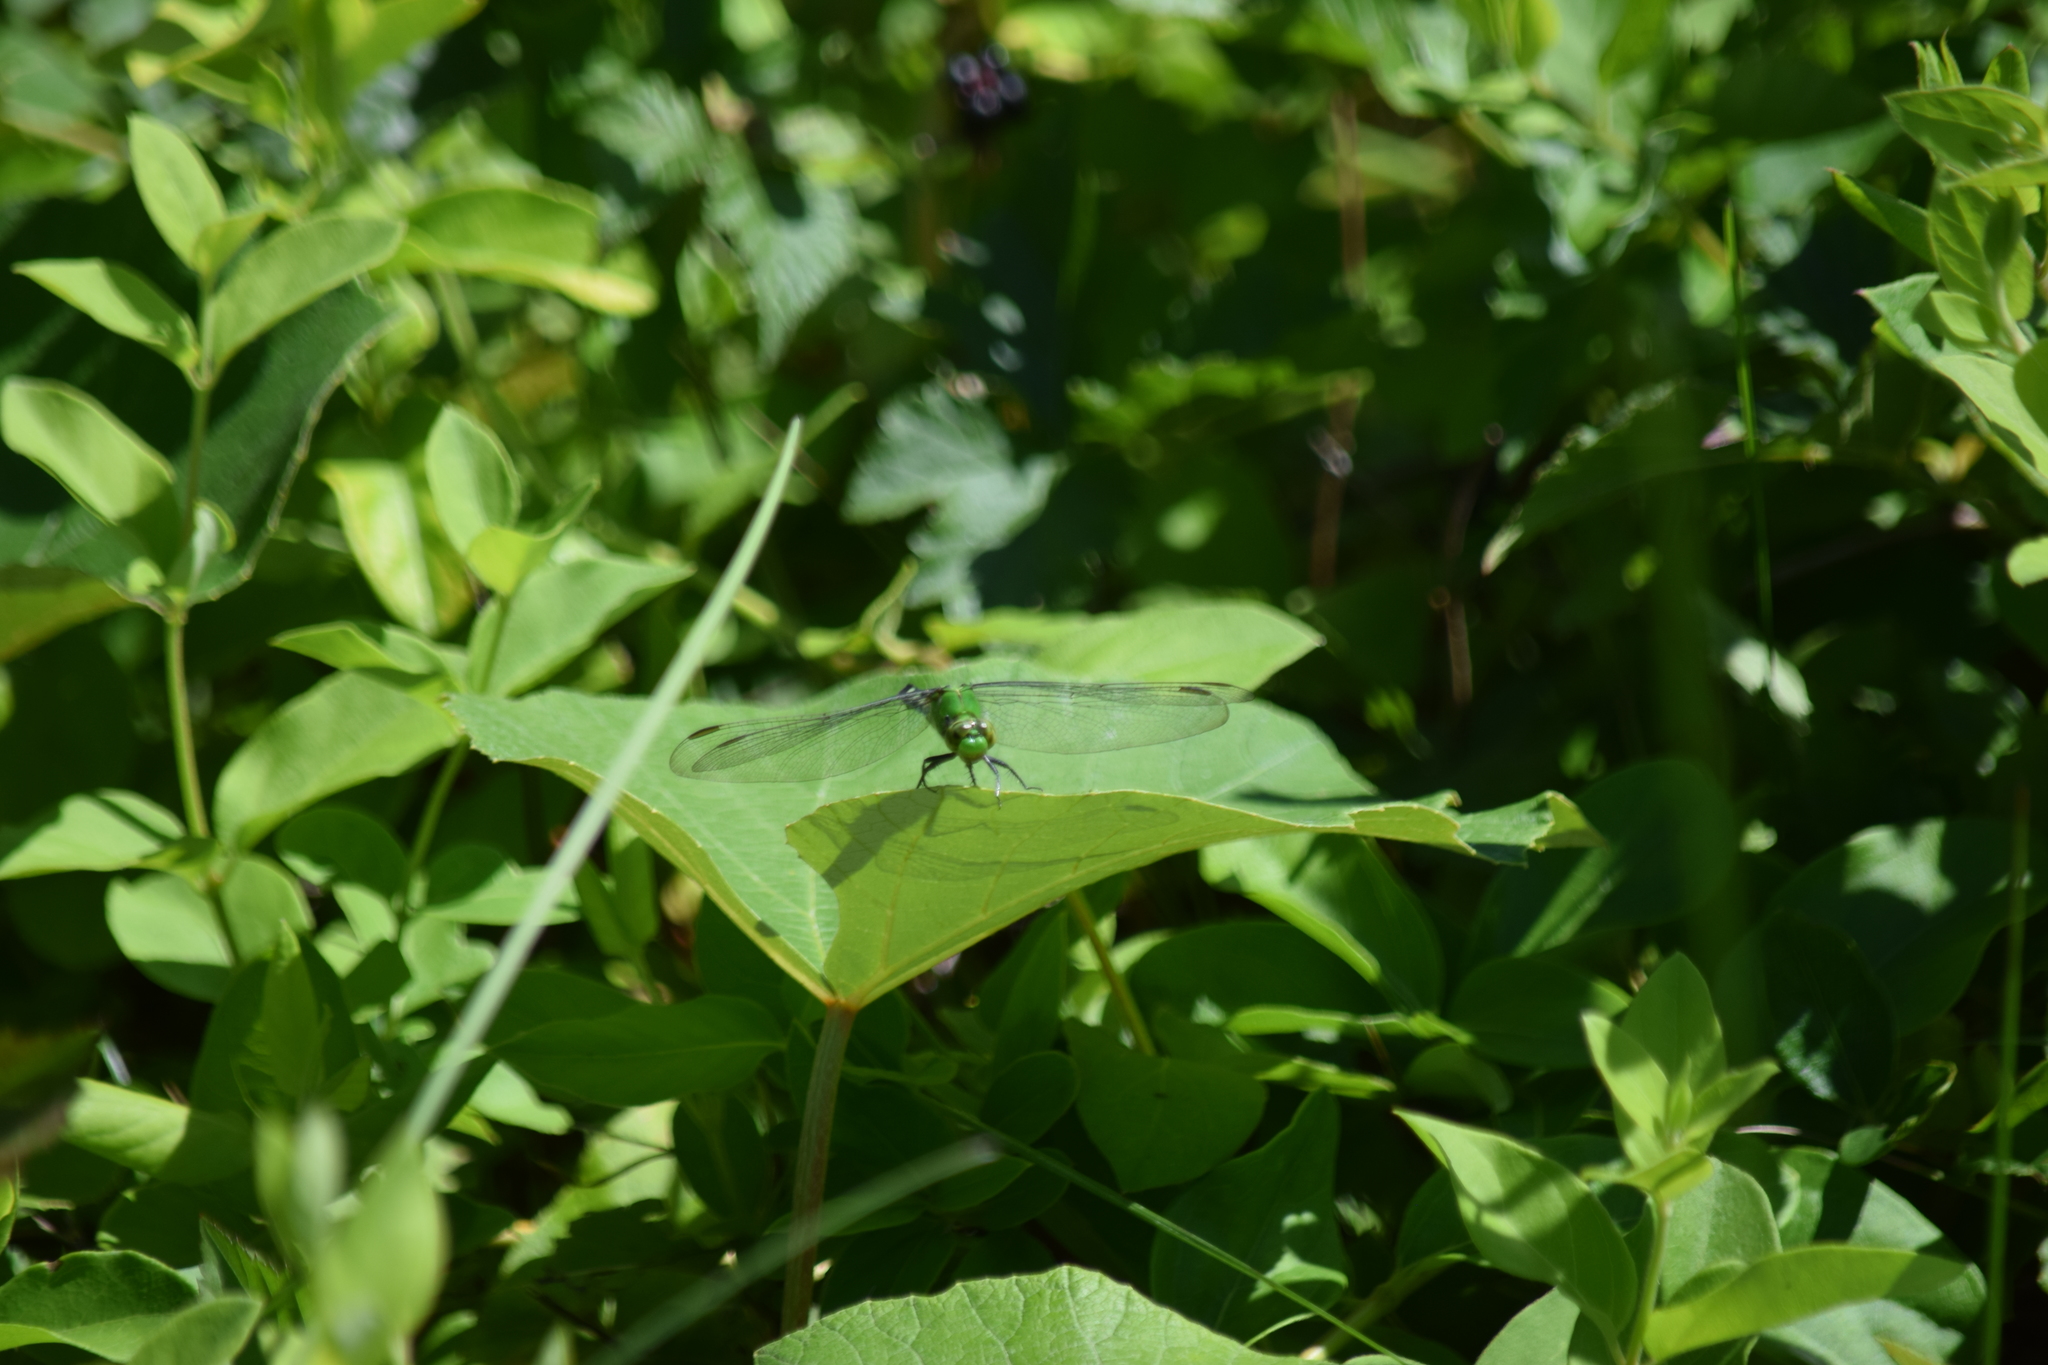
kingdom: Animalia
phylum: Arthropoda
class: Insecta
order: Odonata
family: Libellulidae
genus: Erythemis
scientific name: Erythemis simplicicollis
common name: Eastern pondhawk
